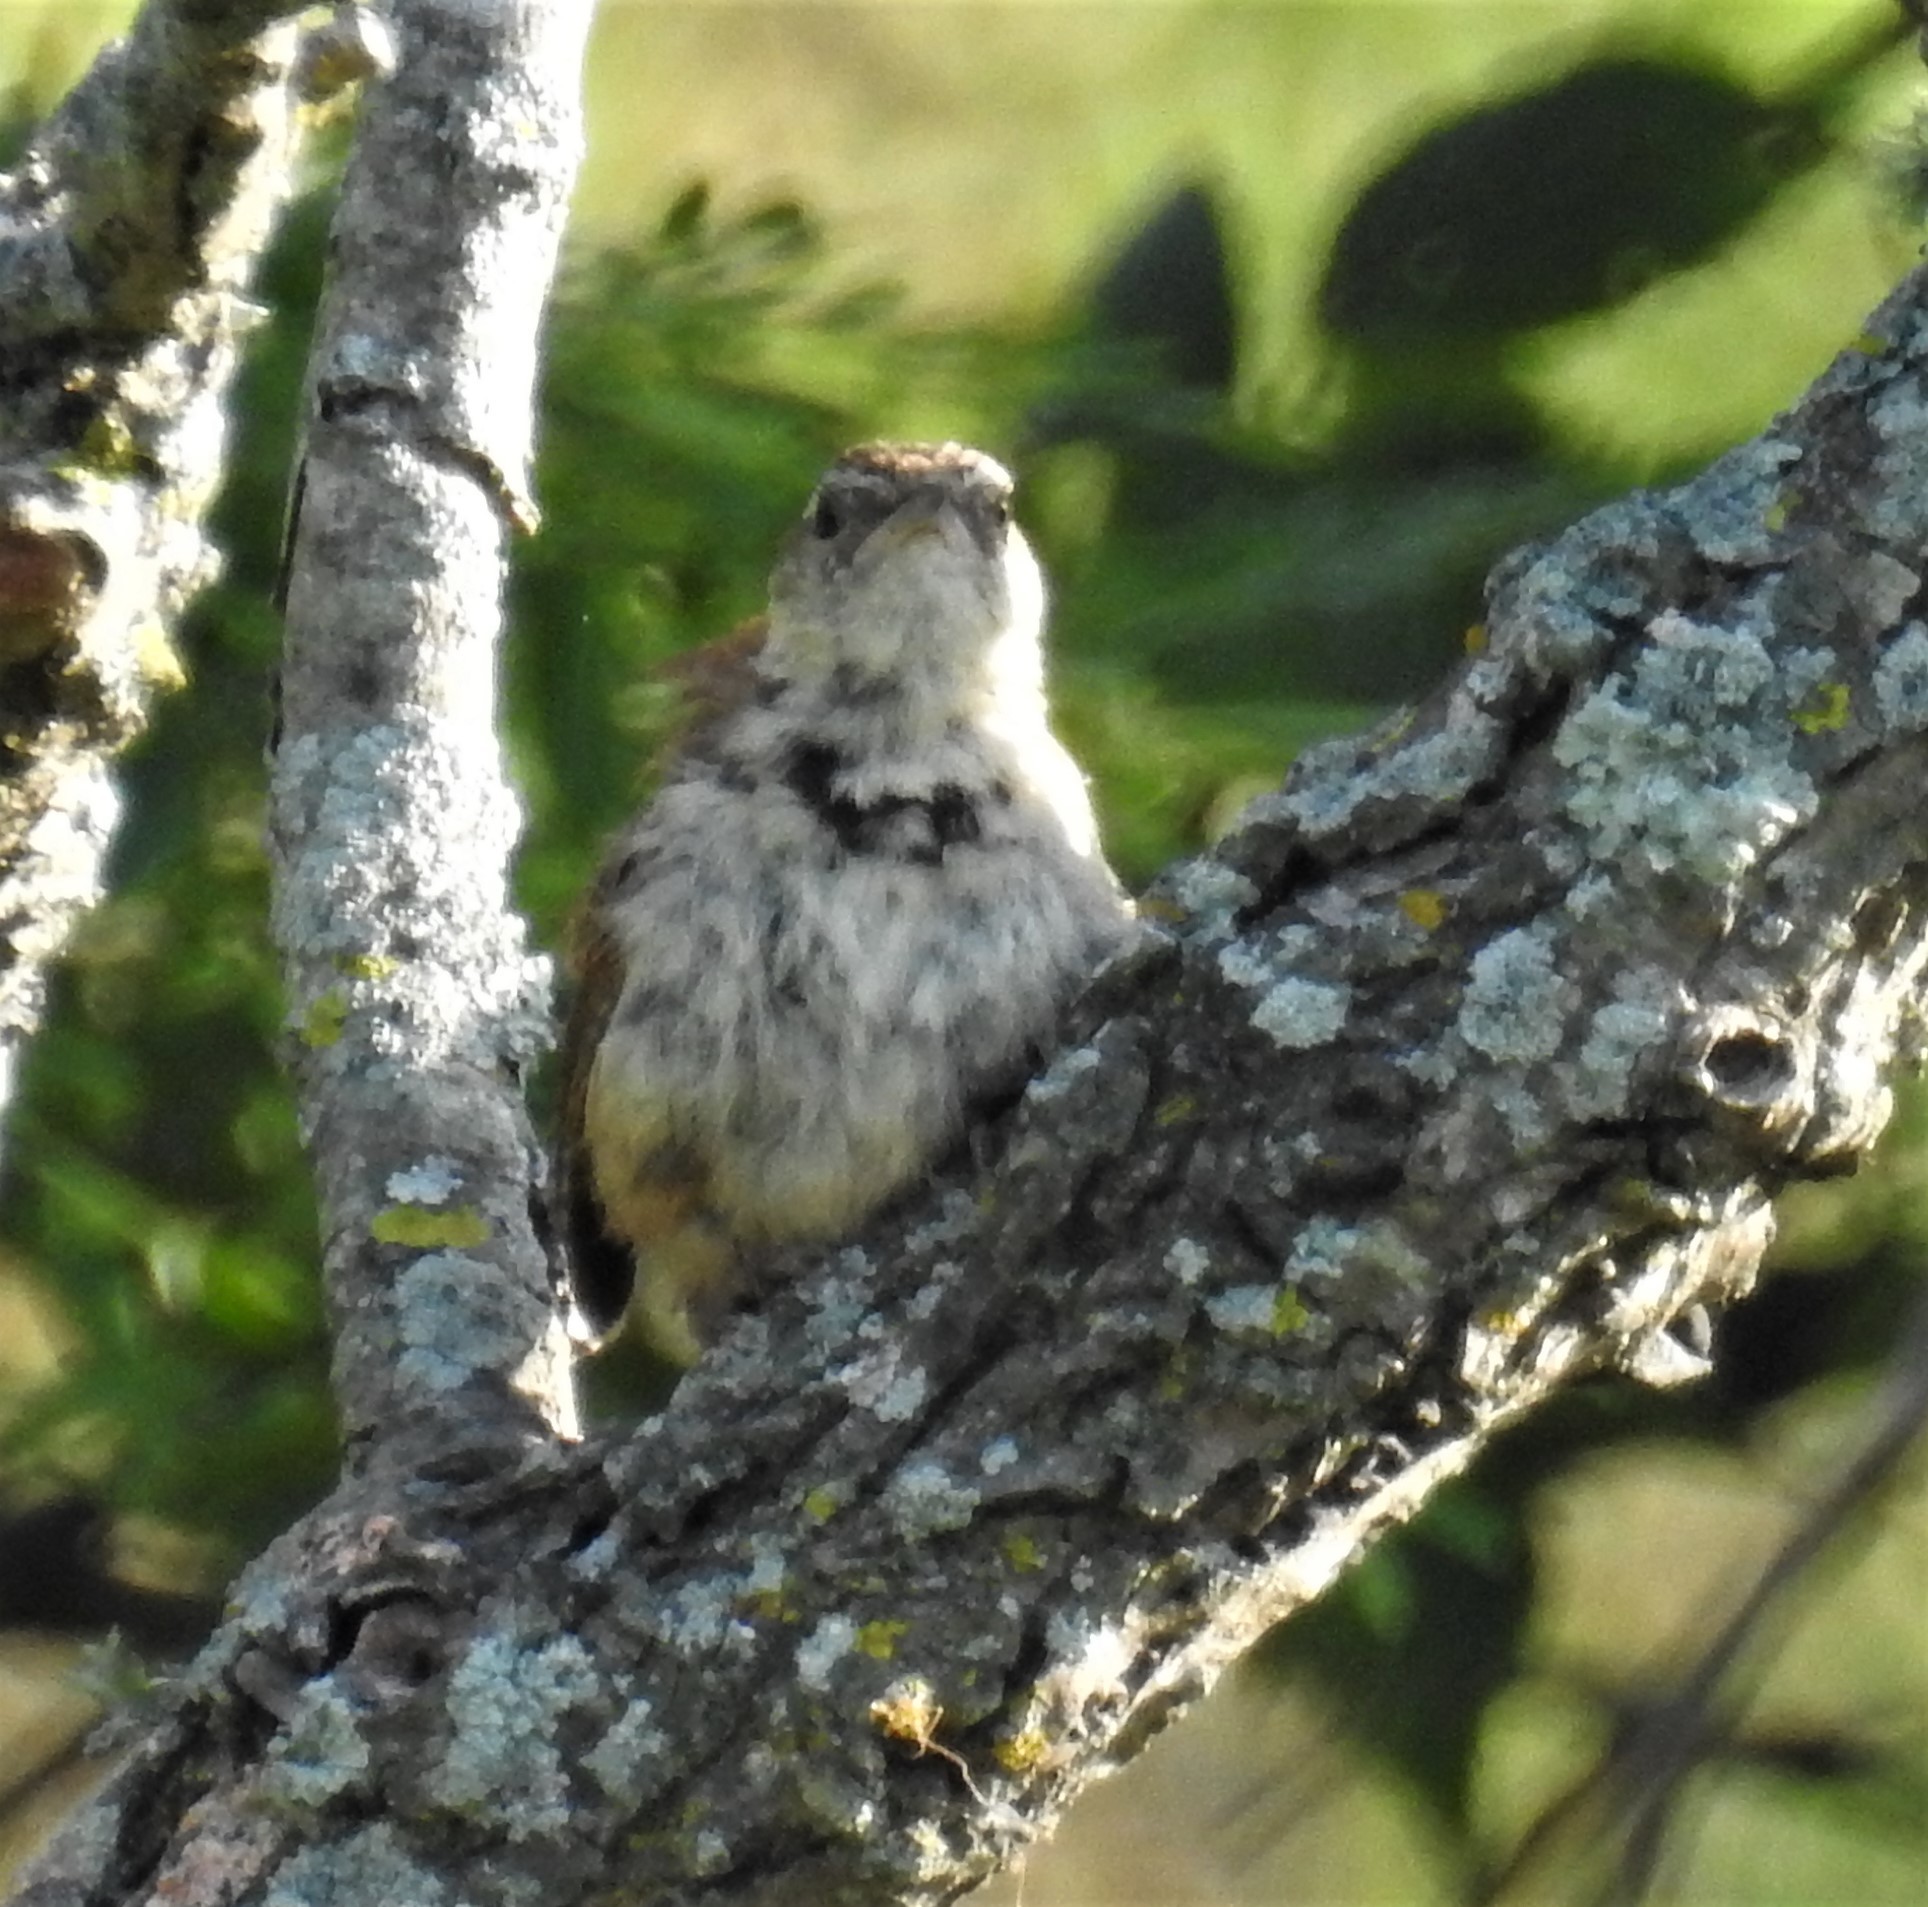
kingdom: Animalia
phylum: Chordata
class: Aves
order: Passeriformes
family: Troglodytidae
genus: Thryothorus
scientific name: Thryothorus ludovicianus
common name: Carolina wren
